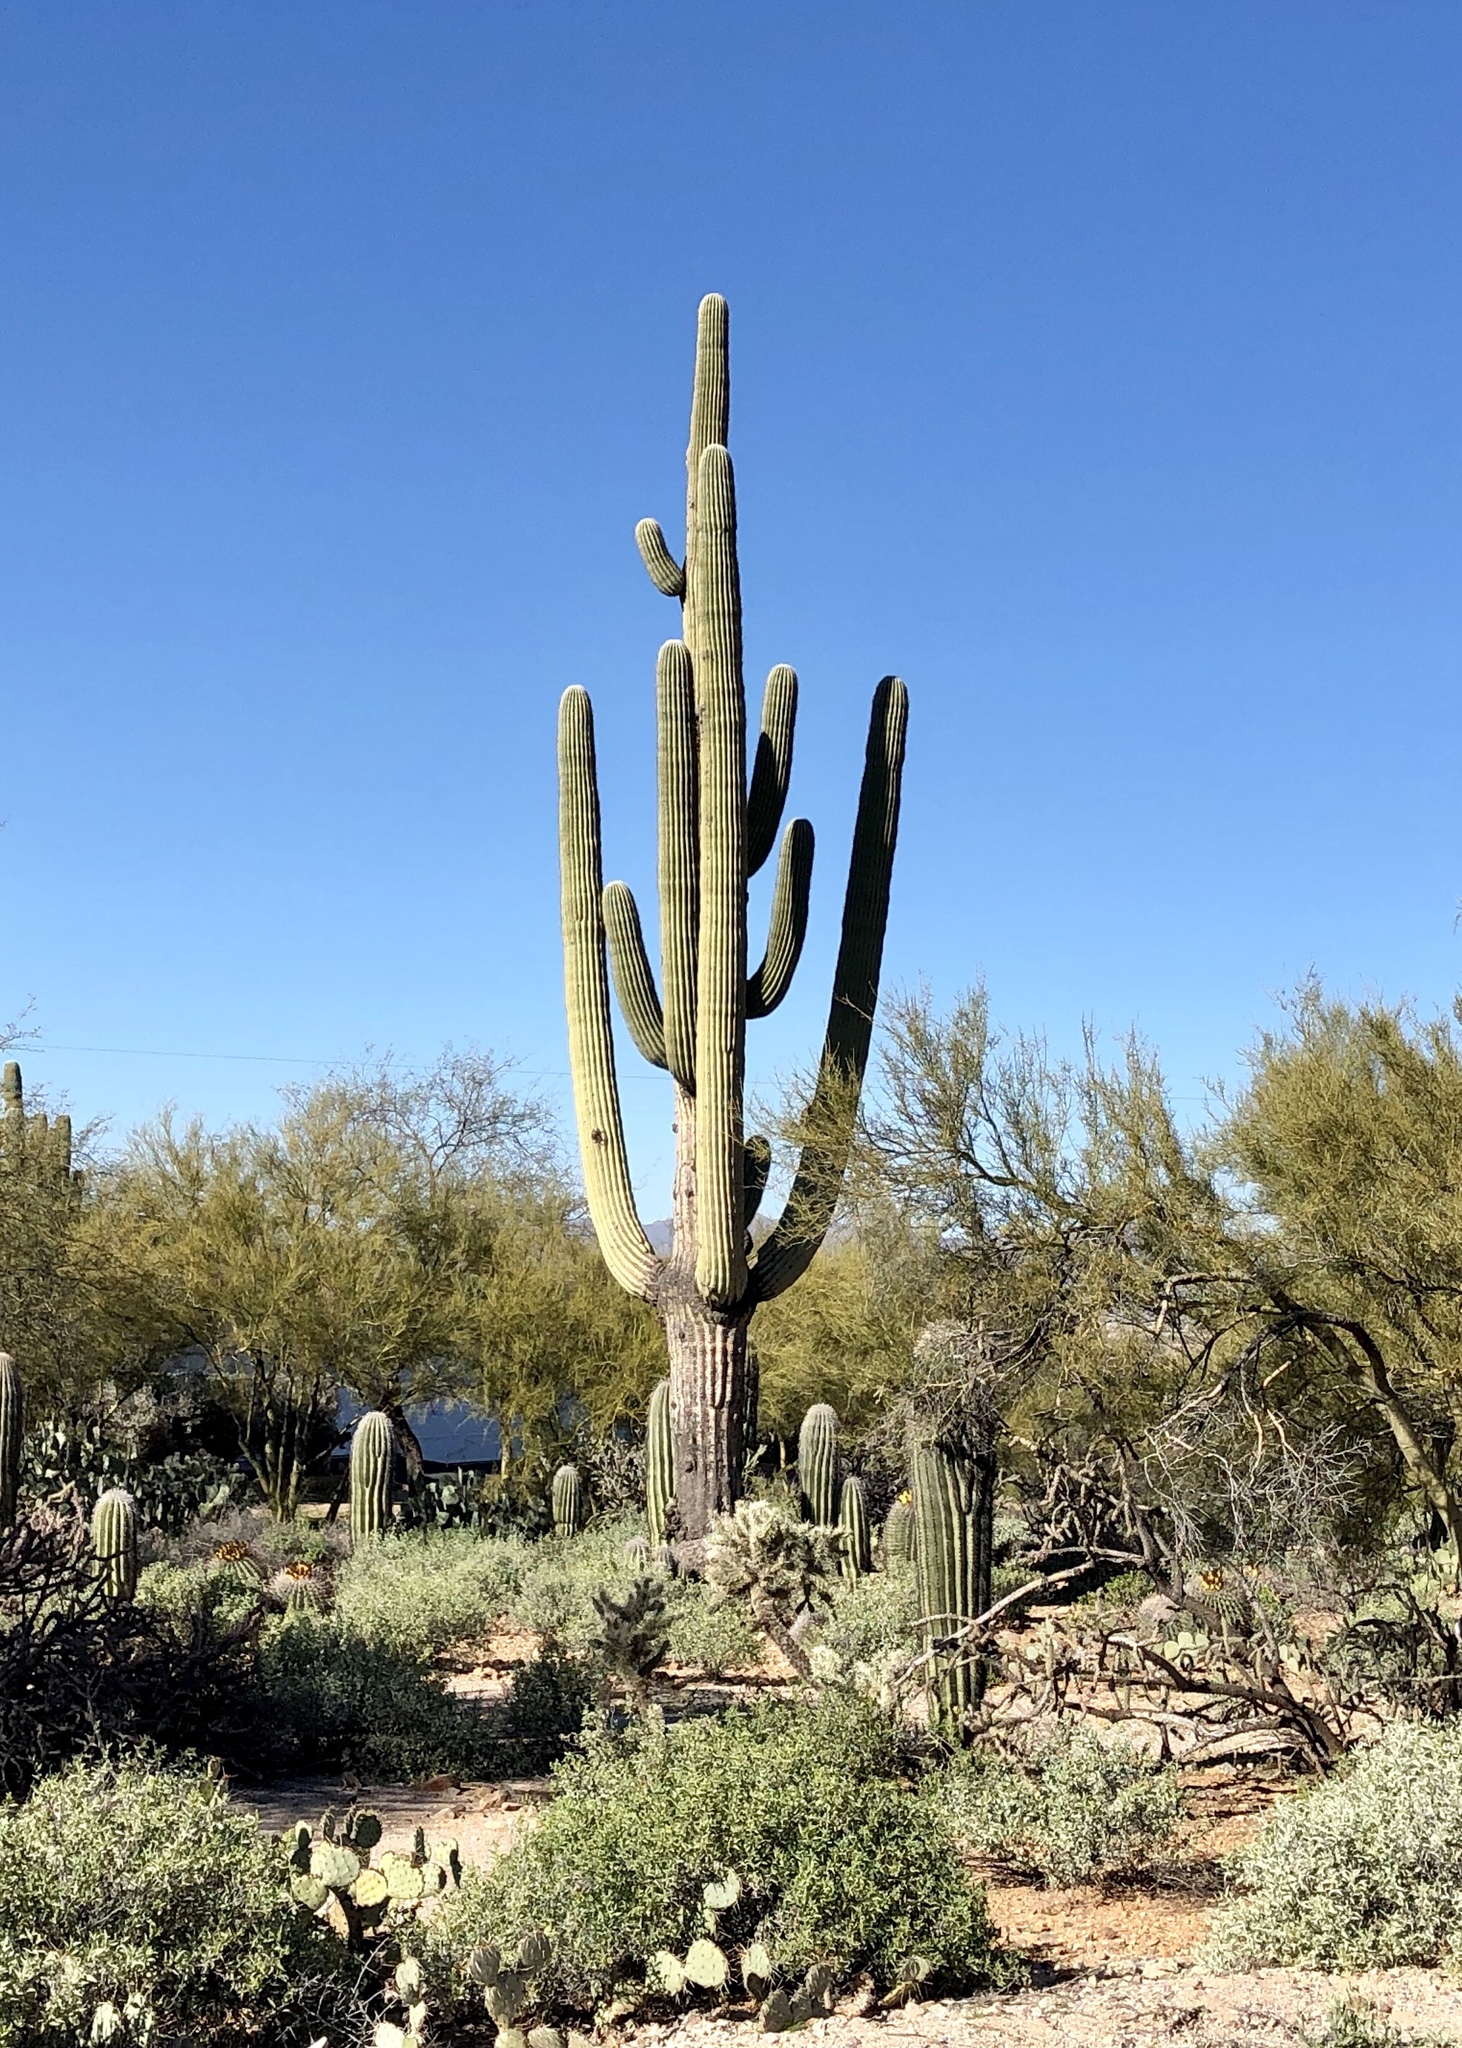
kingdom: Plantae
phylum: Tracheophyta
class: Magnoliopsida
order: Caryophyllales
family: Cactaceae
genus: Carnegiea
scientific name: Carnegiea gigantea
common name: Saguaro
